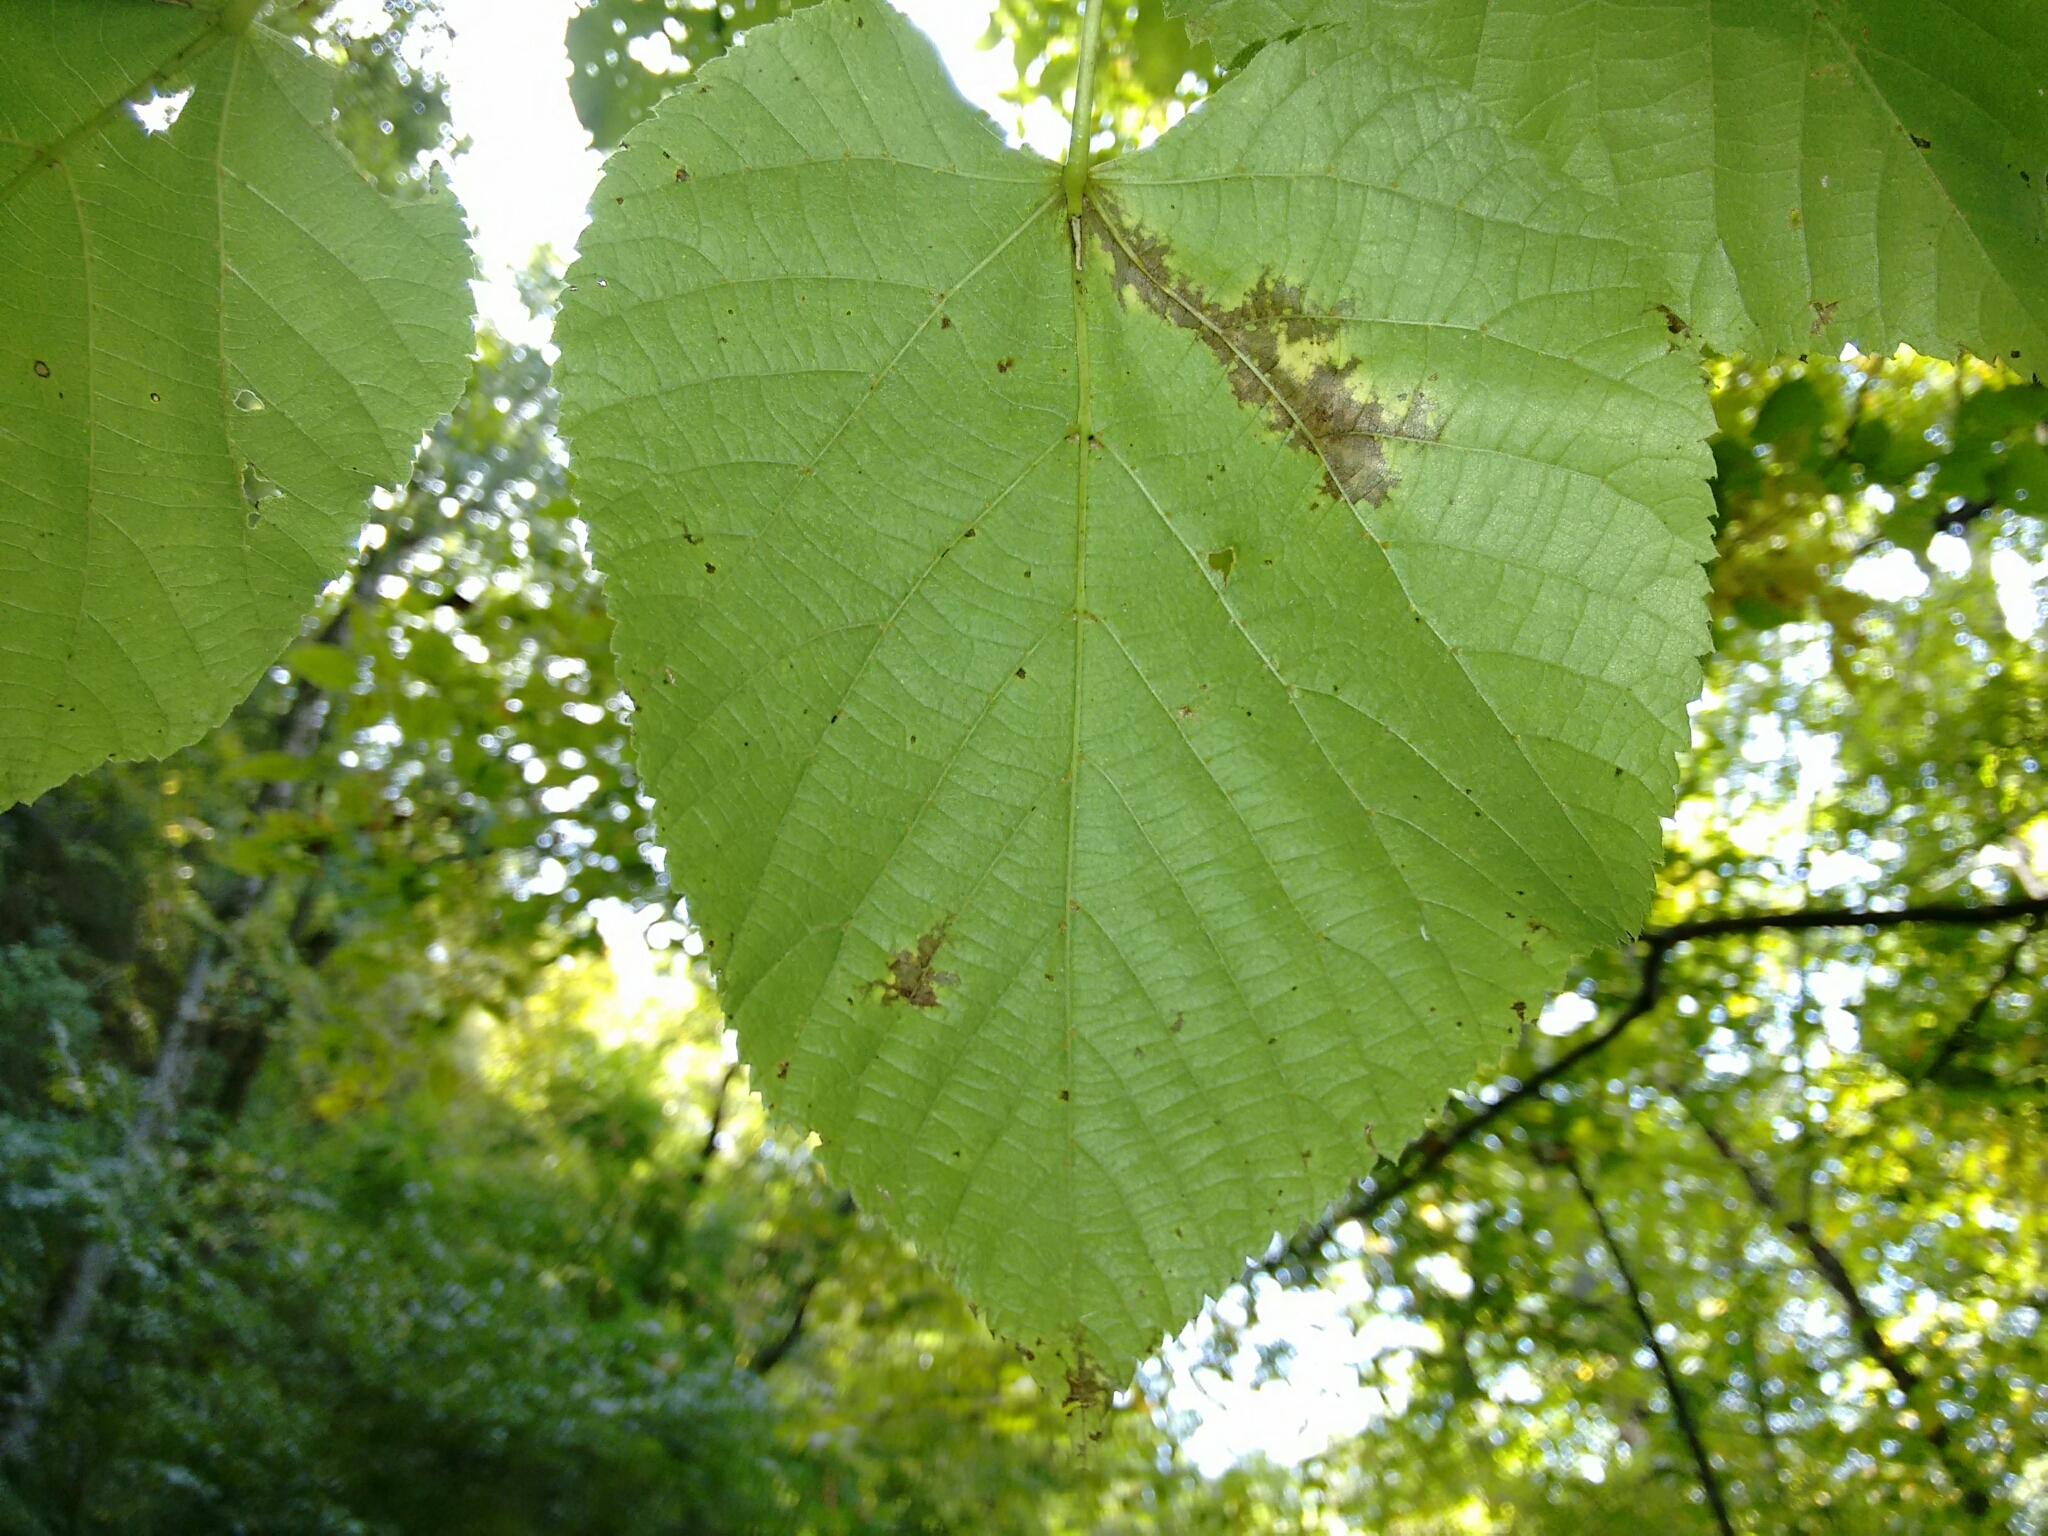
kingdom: Plantae
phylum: Tracheophyta
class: Magnoliopsida
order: Malvales
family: Malvaceae
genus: Tilia
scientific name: Tilia americana
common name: Basswood
